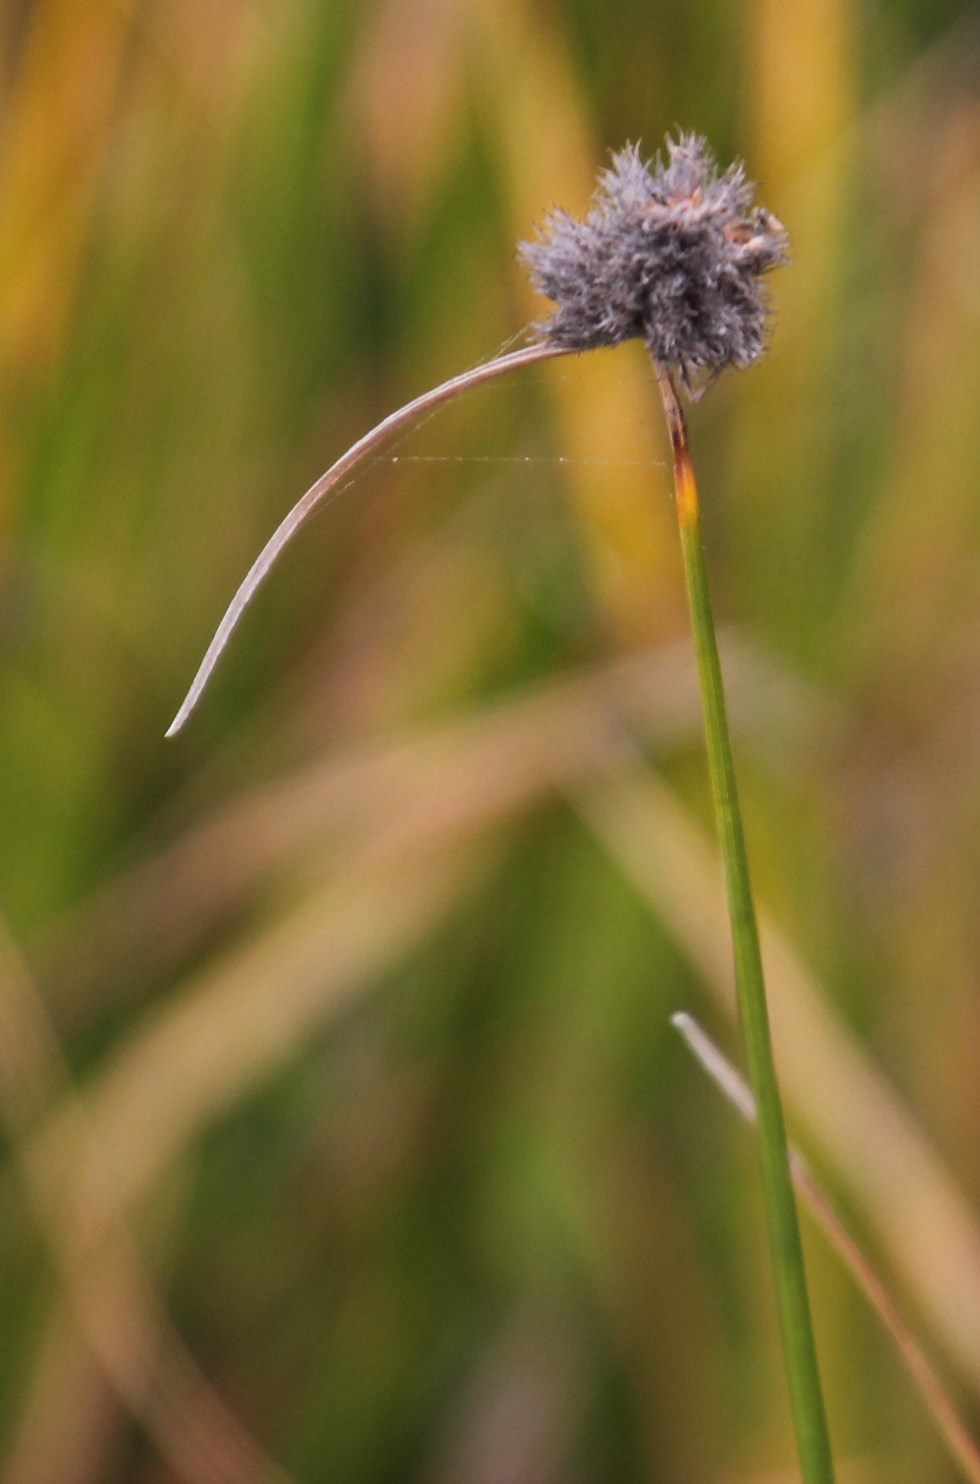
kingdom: Plantae
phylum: Tracheophyta
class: Liliopsida
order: Poales
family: Cyperaceae
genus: Fuirena
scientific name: Fuirena hirsuta
